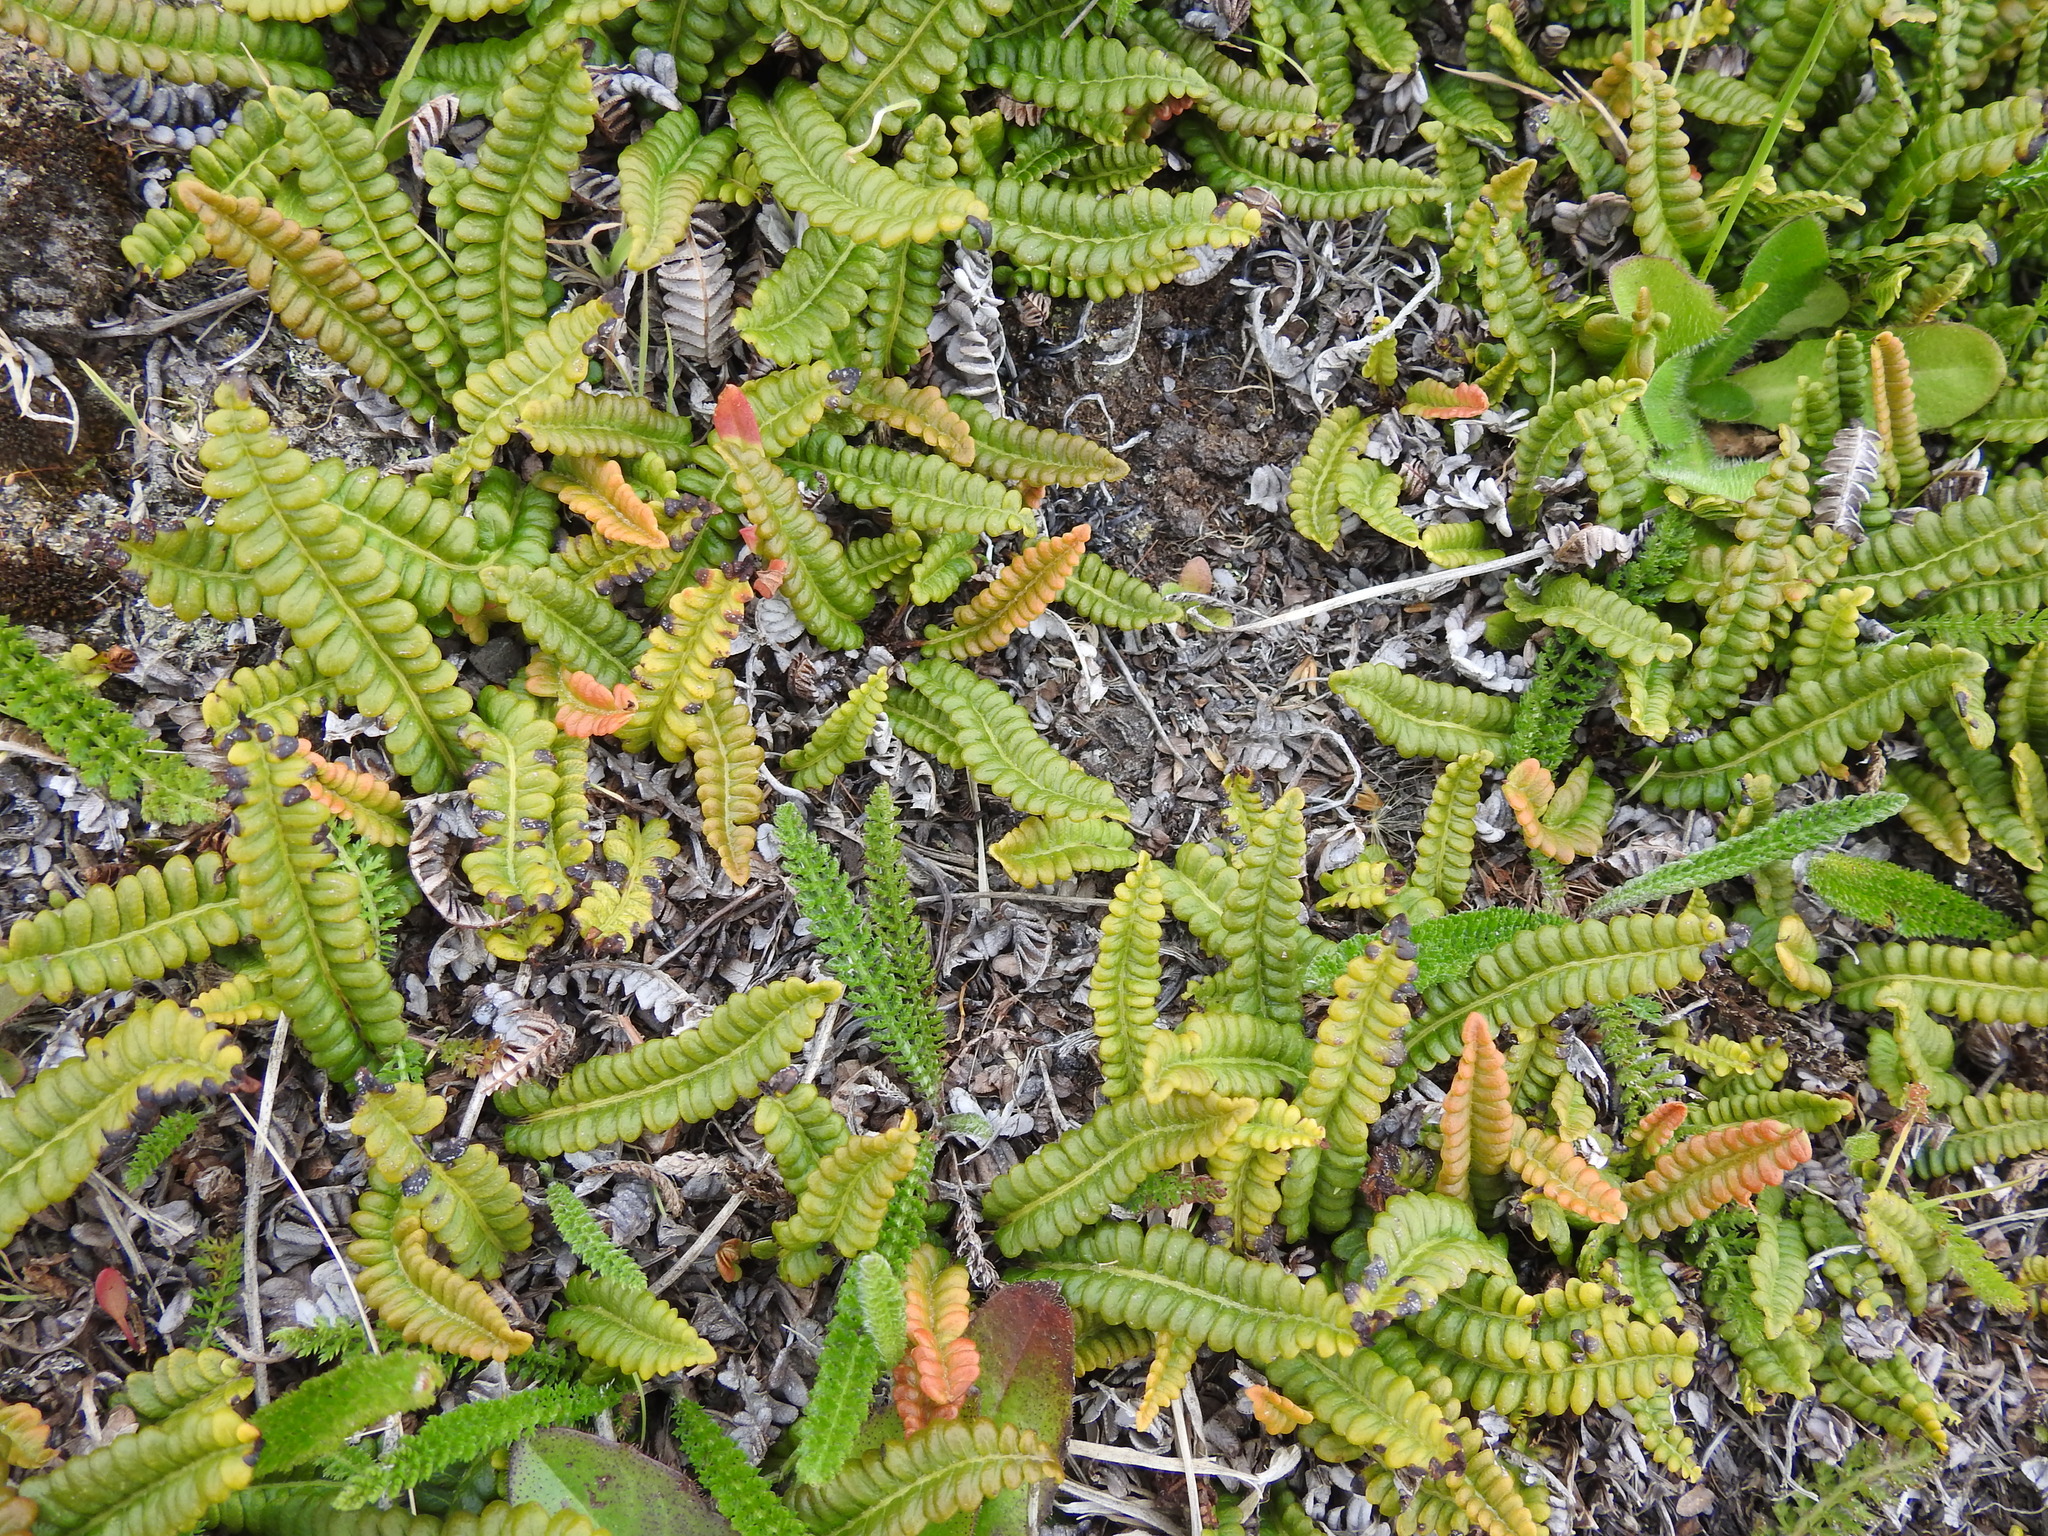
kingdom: Plantae
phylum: Tracheophyta
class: Polypodiopsida
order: Polypodiales
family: Blechnaceae
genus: Austroblechnum
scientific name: Austroblechnum penna-marina
